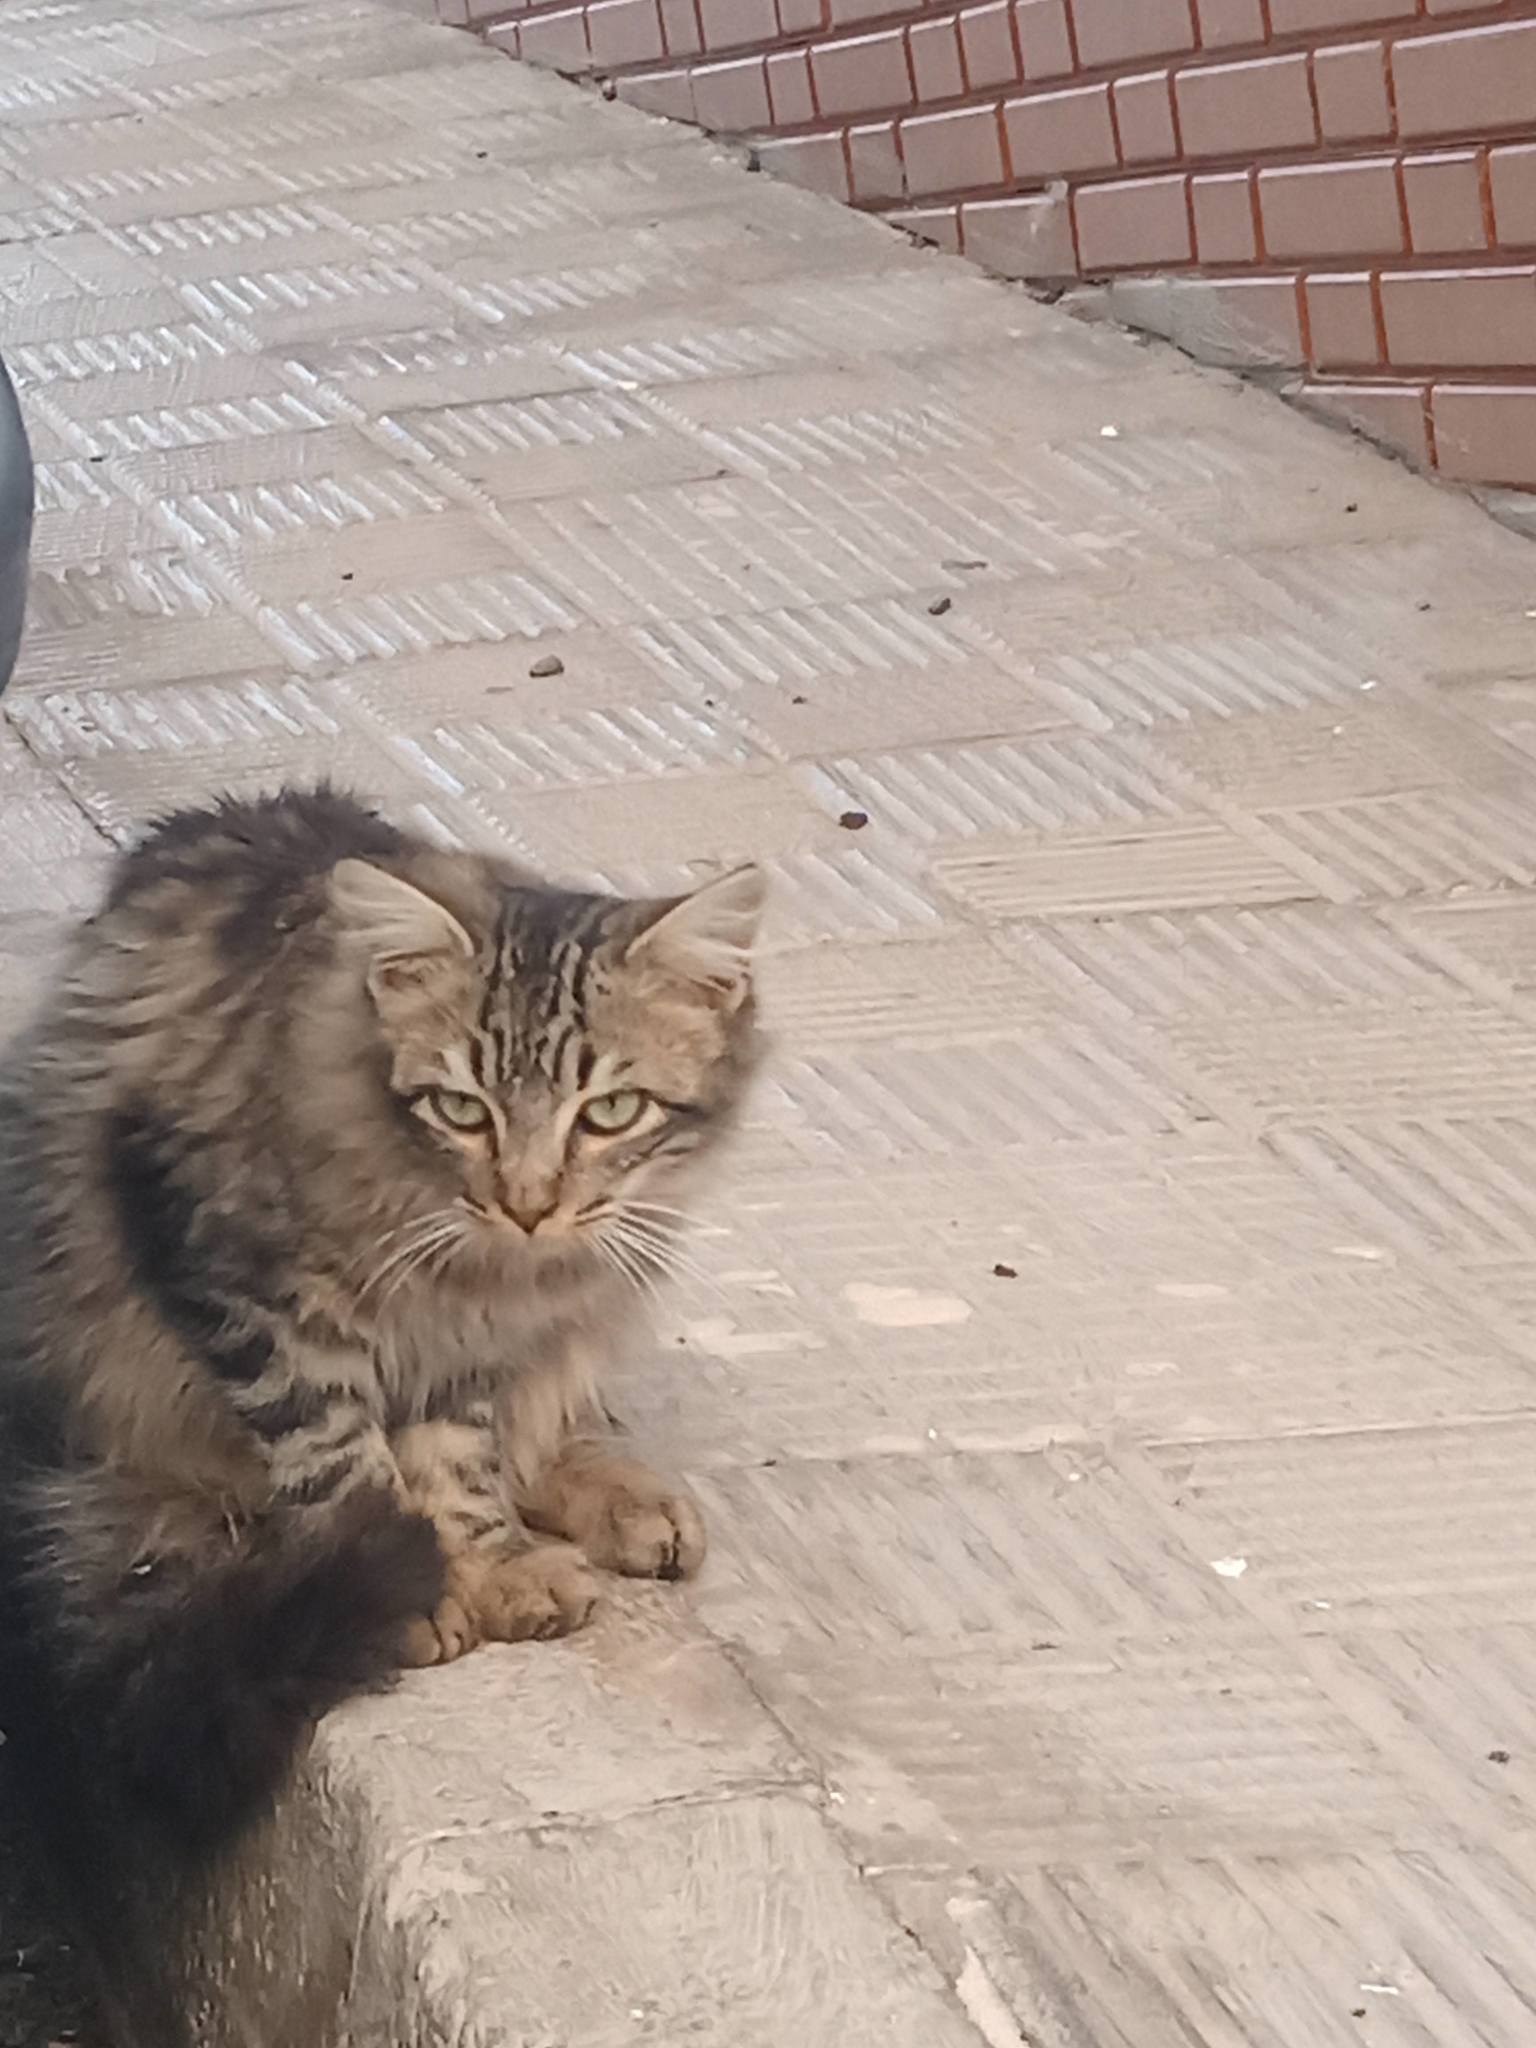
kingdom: Animalia
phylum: Chordata
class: Mammalia
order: Carnivora
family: Felidae
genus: Felis
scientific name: Felis catus
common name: Domestic cat
